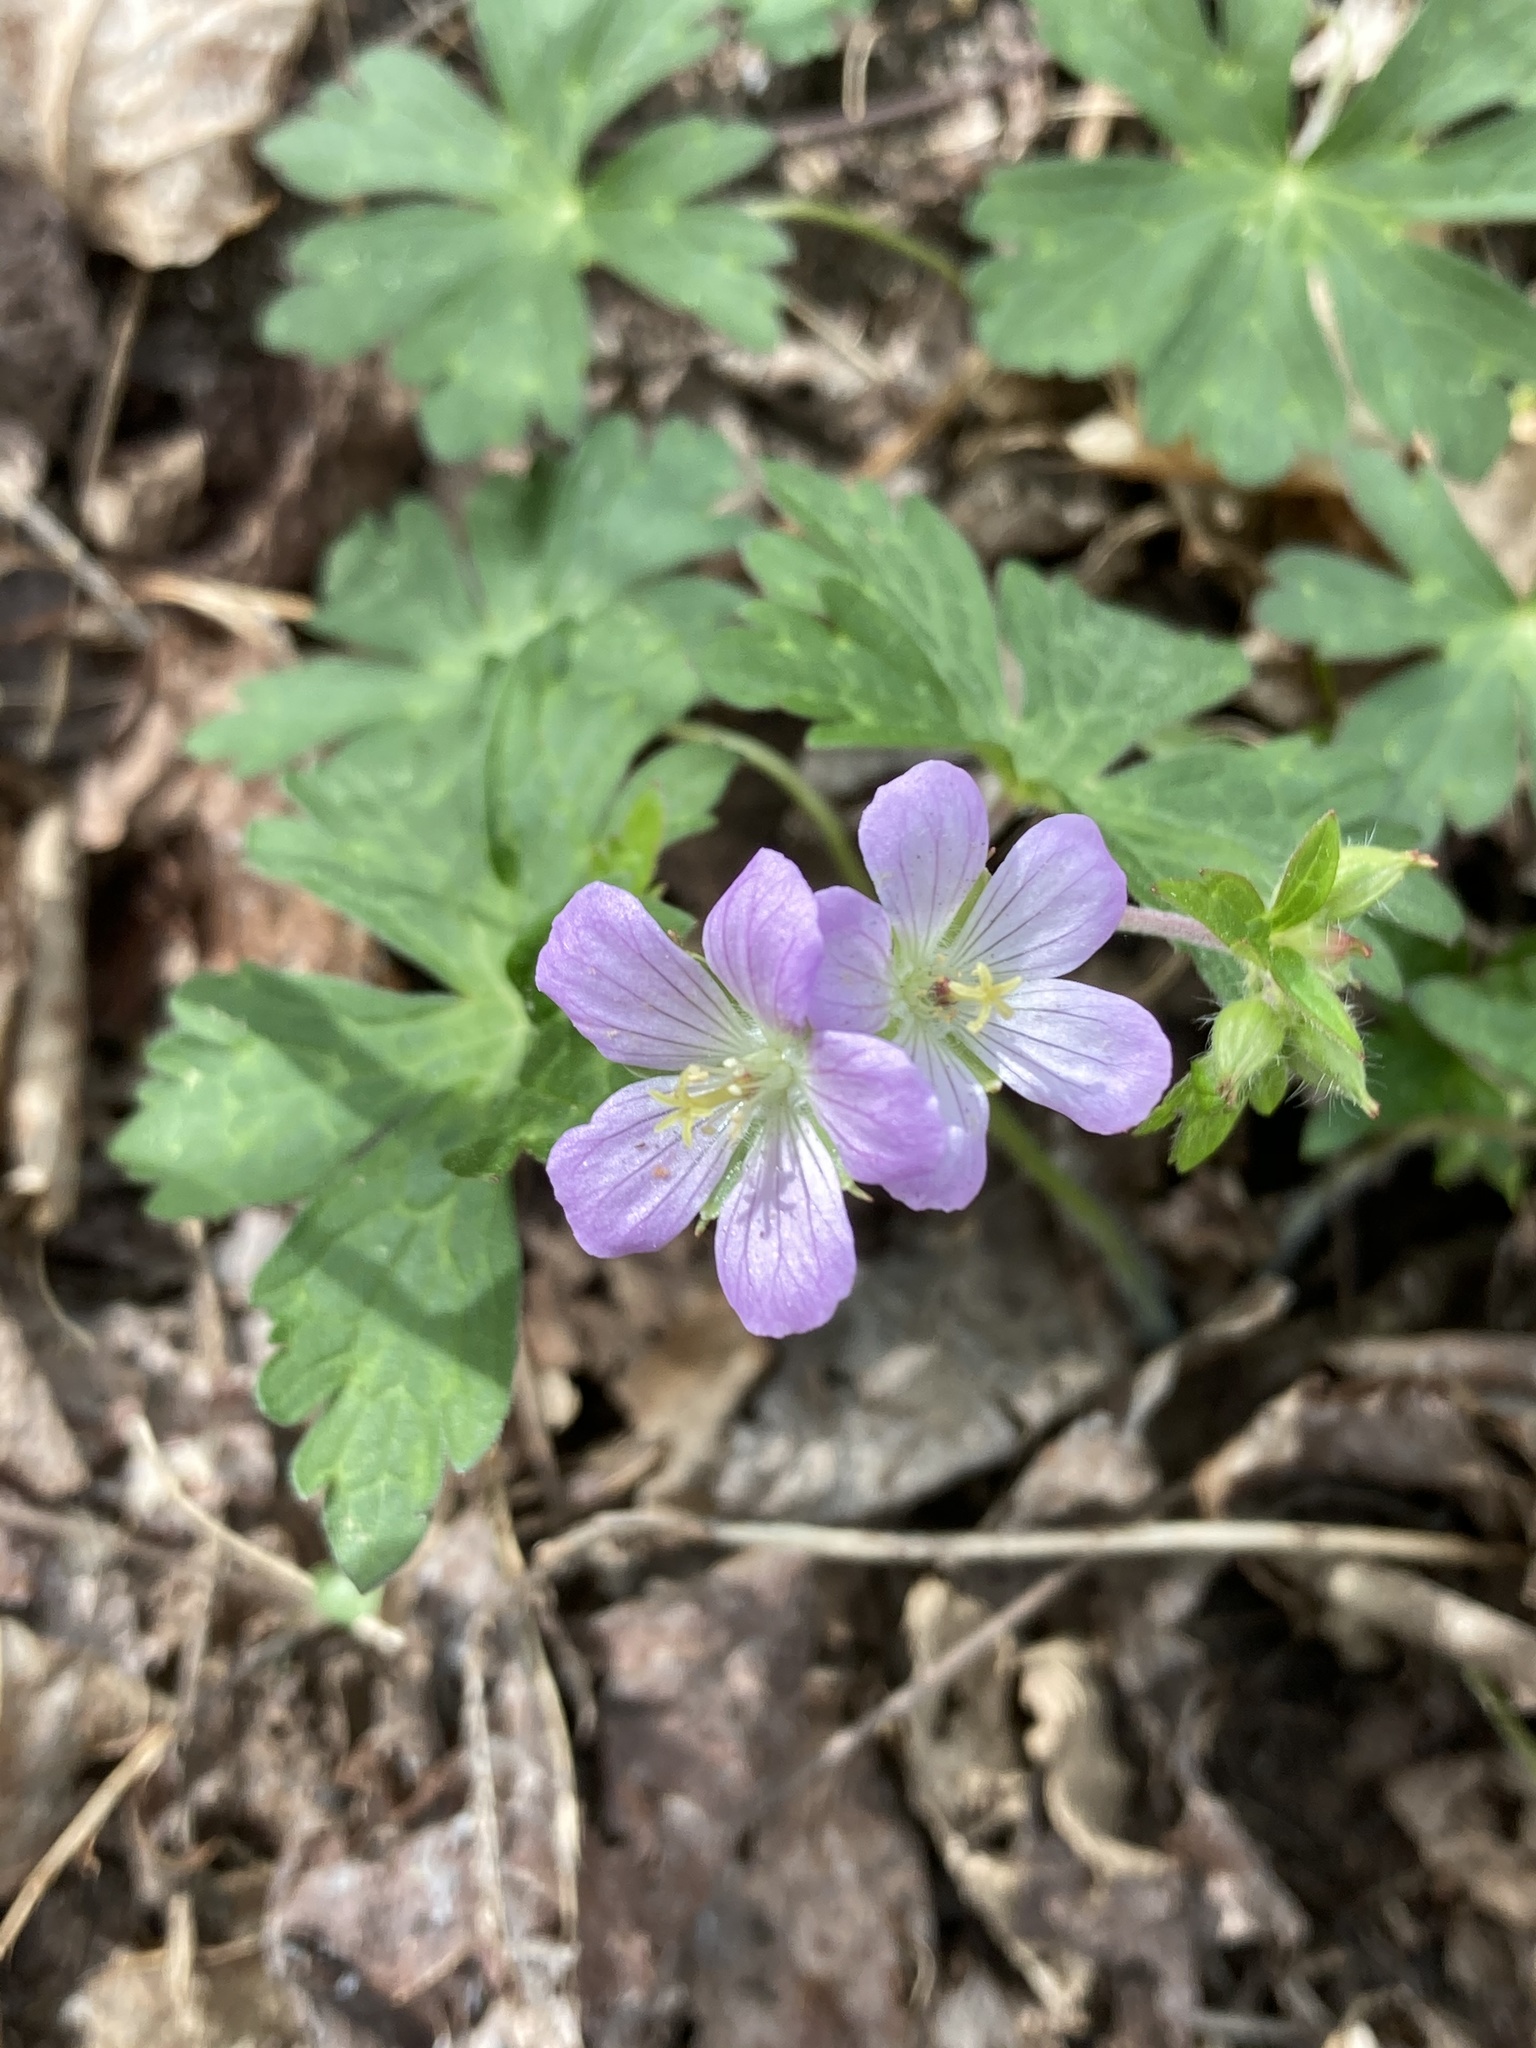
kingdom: Plantae
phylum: Tracheophyta
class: Magnoliopsida
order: Geraniales
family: Geraniaceae
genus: Geranium
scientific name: Geranium maculatum
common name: Spotted geranium
